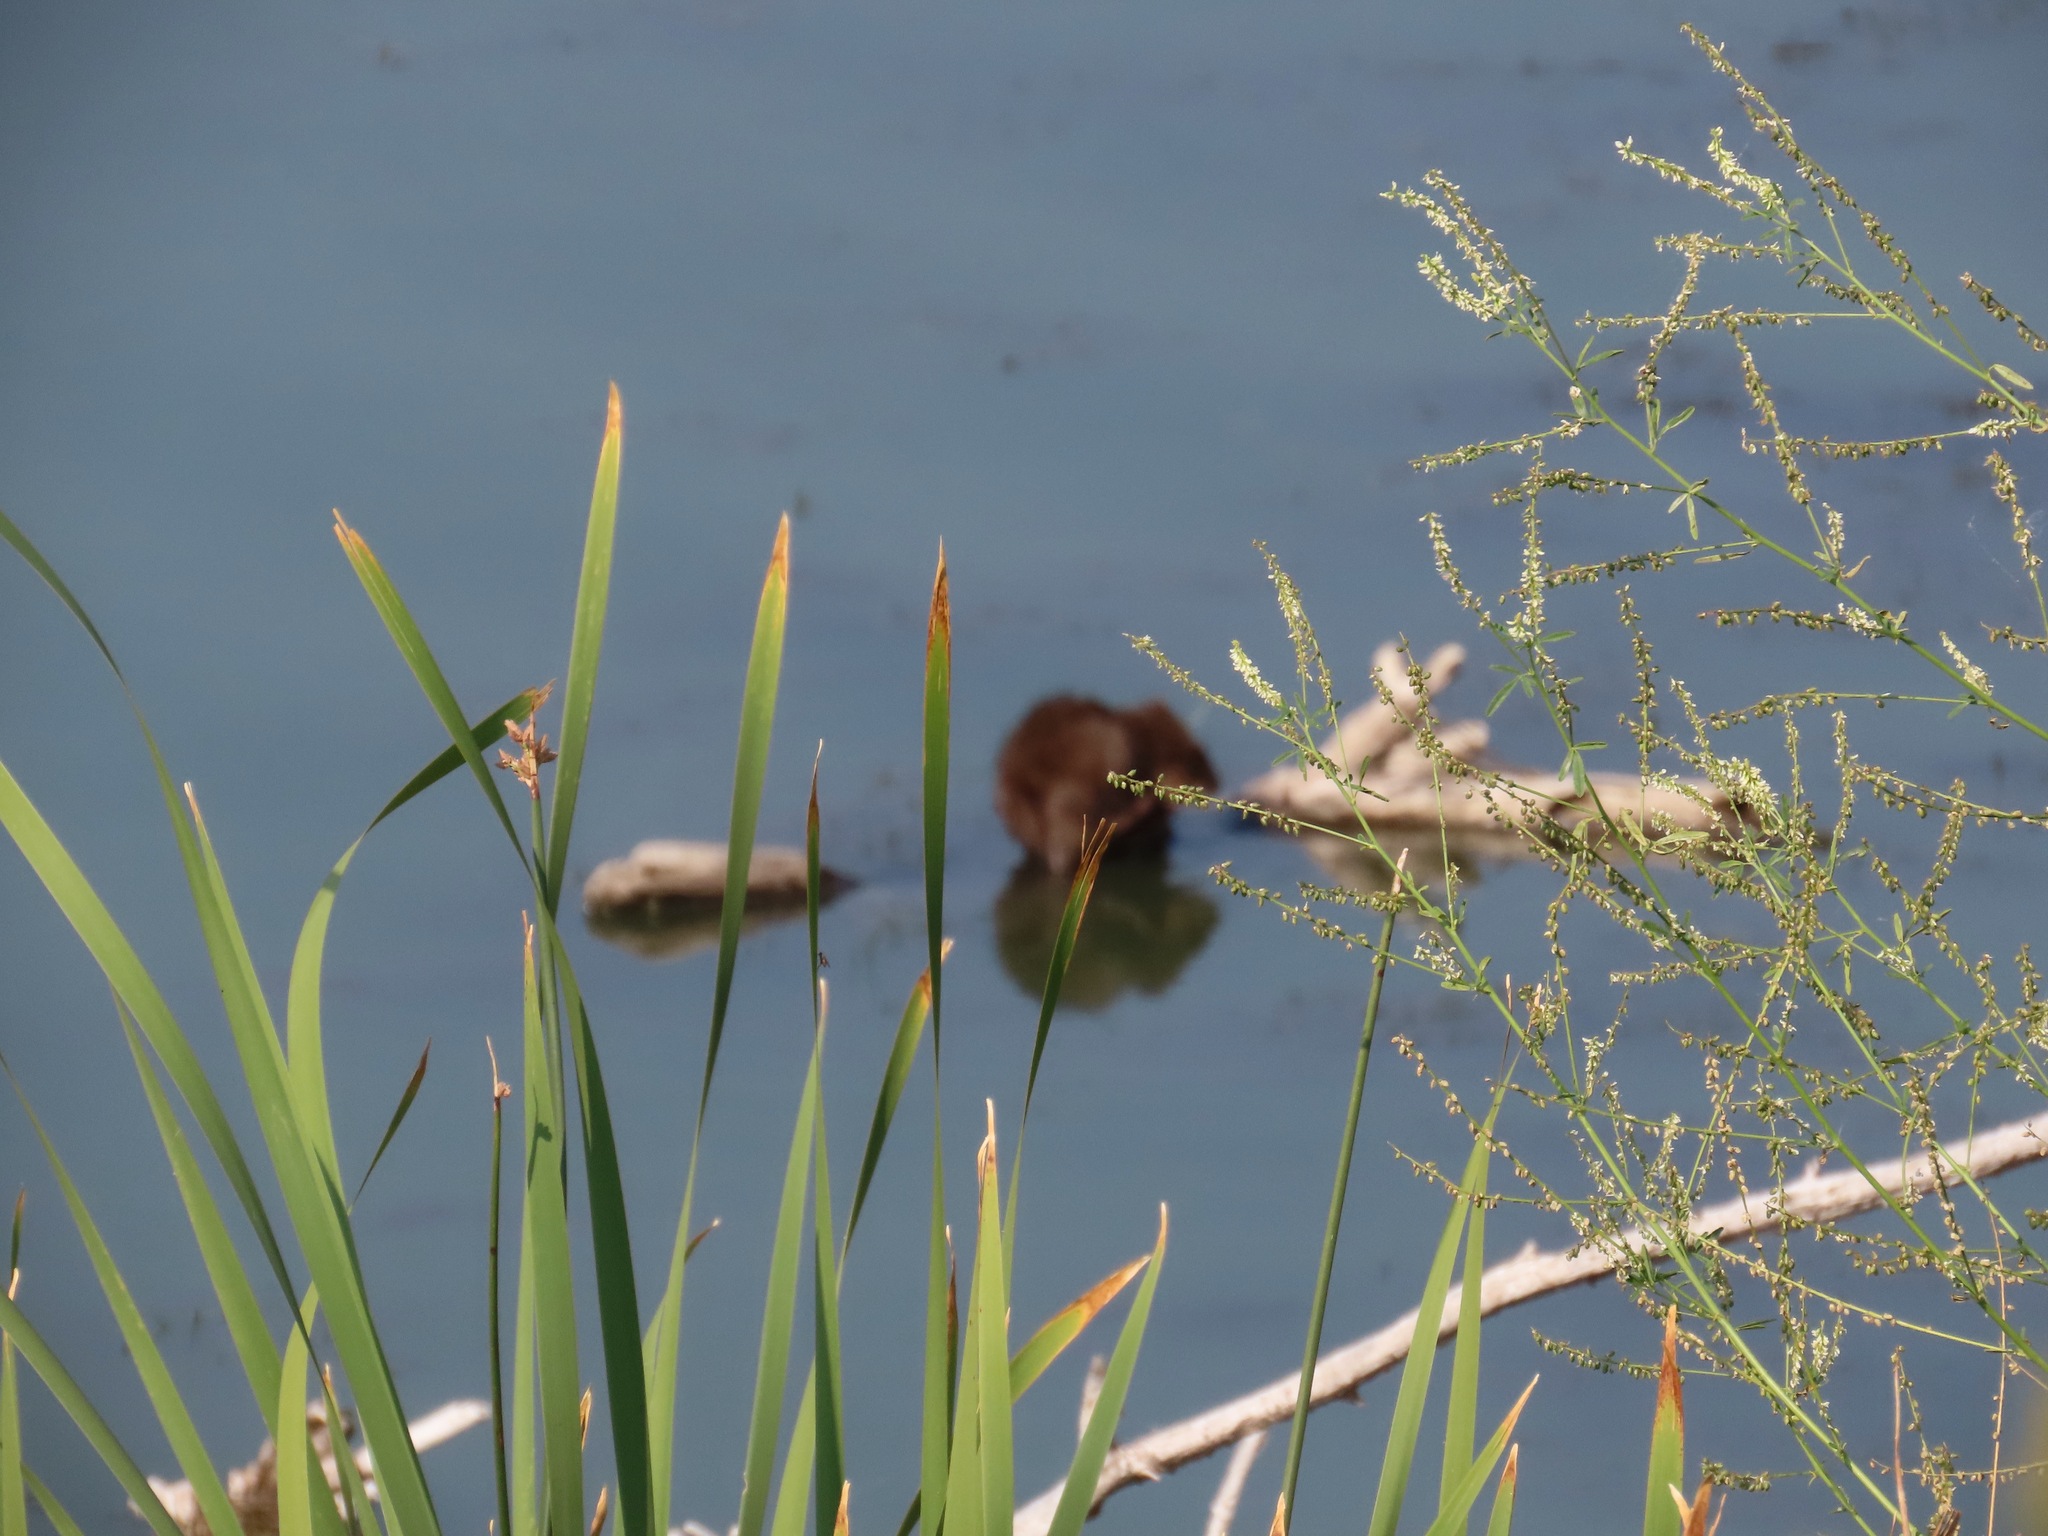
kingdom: Animalia
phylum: Chordata
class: Mammalia
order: Rodentia
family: Cricetidae
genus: Ondatra
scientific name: Ondatra zibethicus
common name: Muskrat
